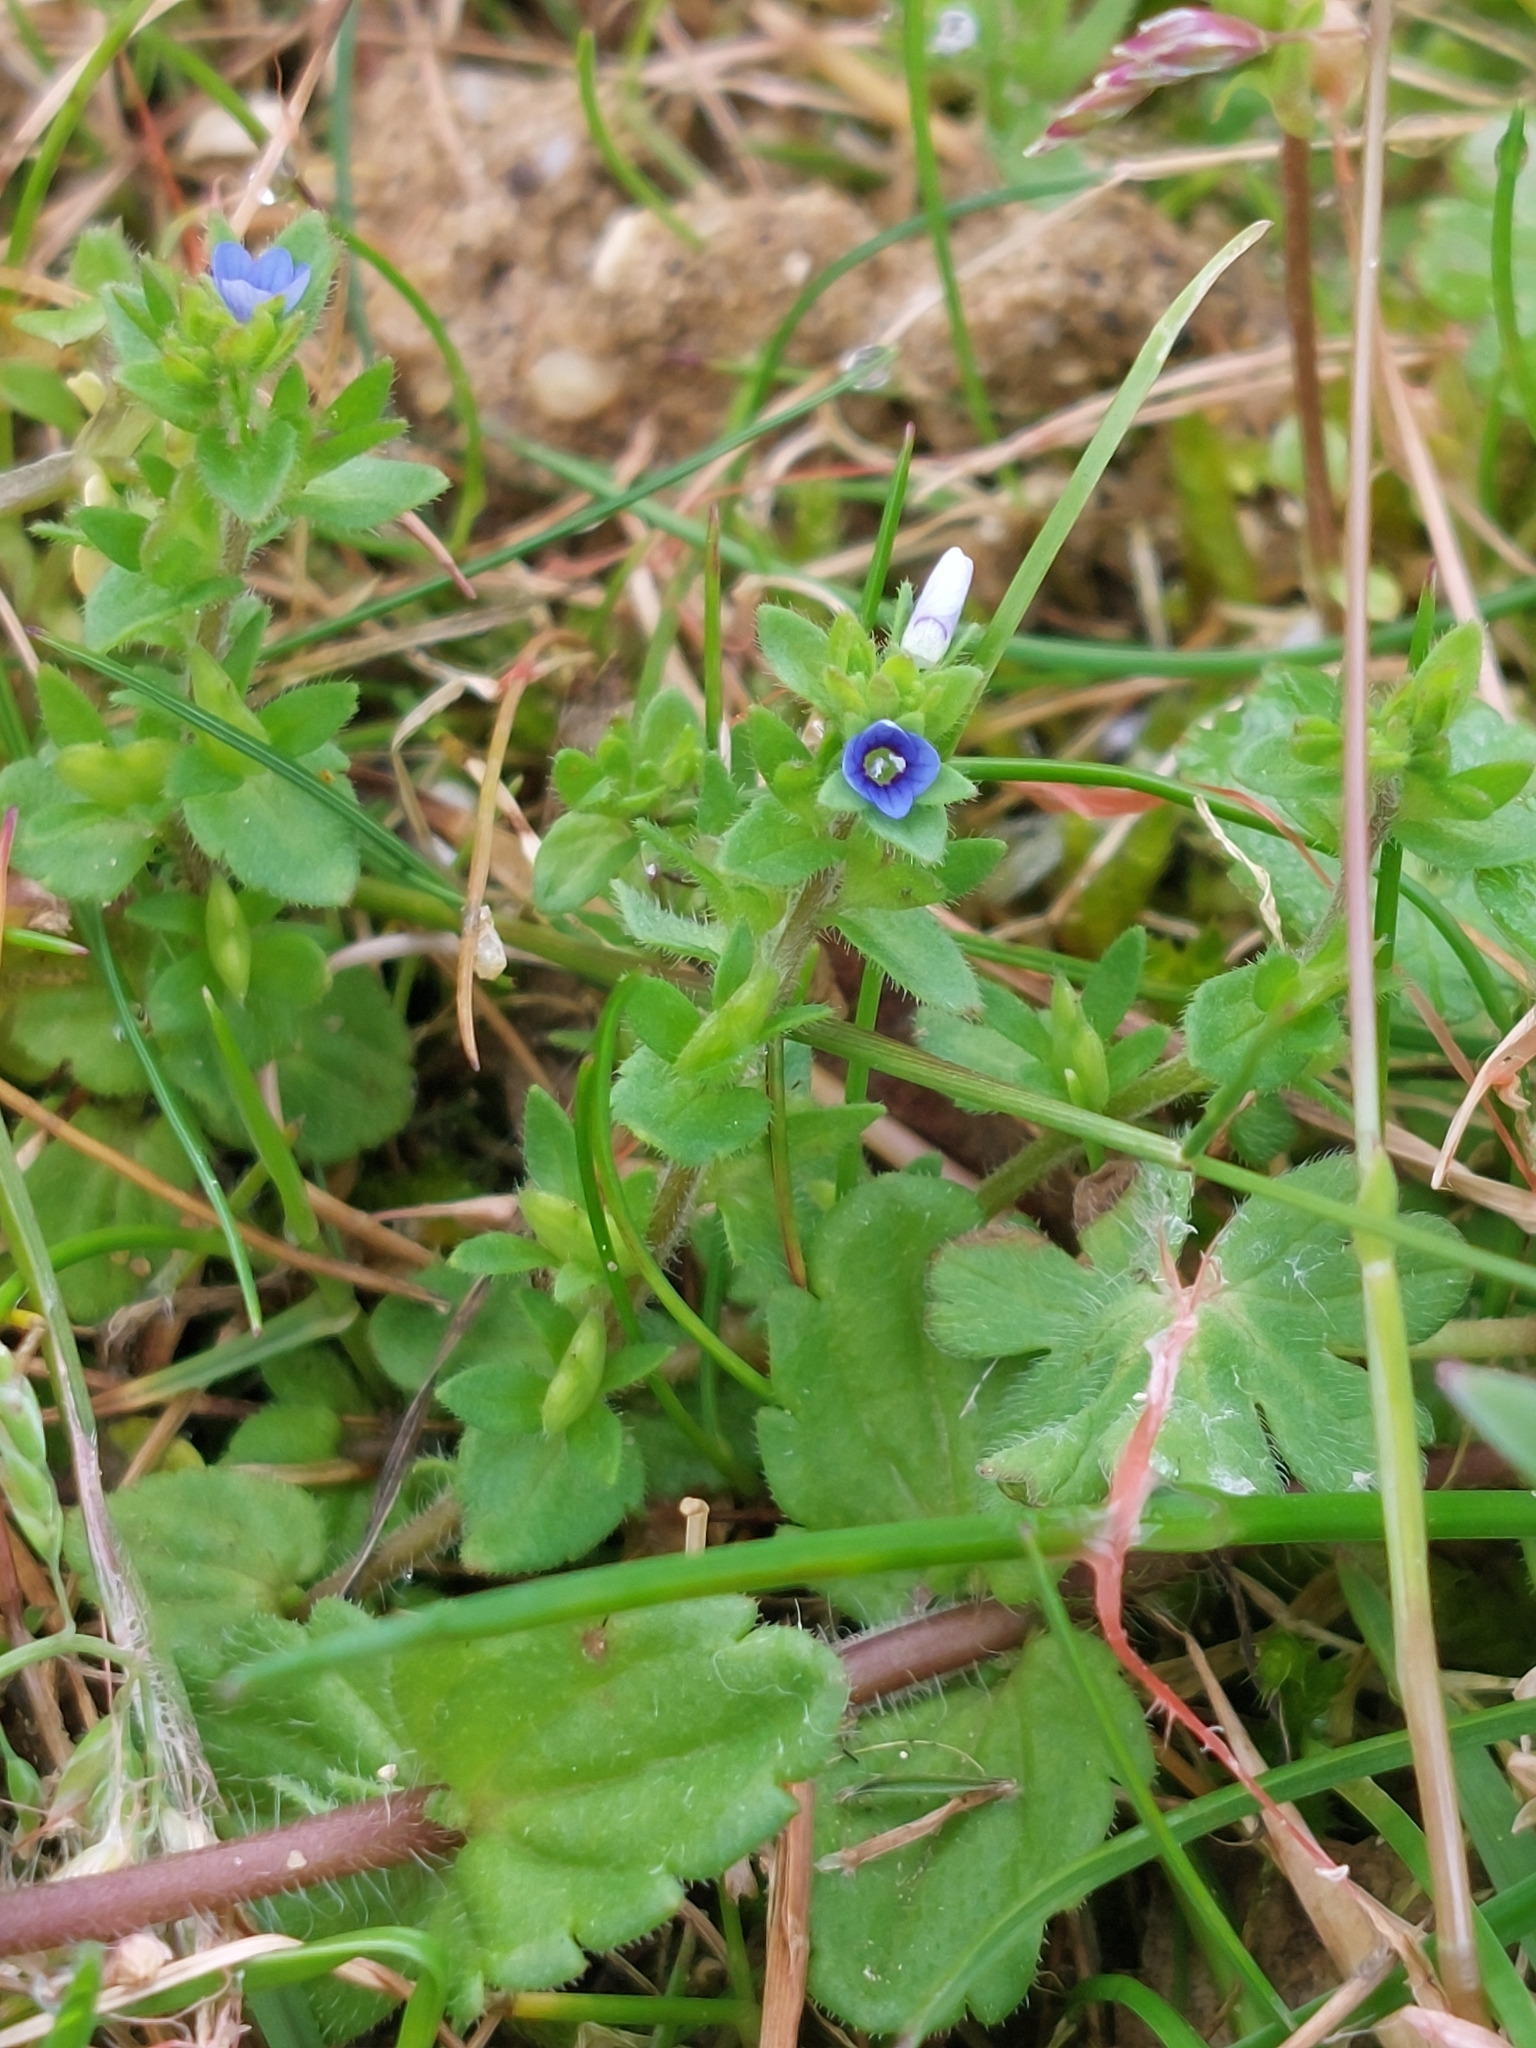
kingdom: Plantae
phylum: Tracheophyta
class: Magnoliopsida
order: Lamiales
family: Plantaginaceae
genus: Veronica
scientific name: Veronica arvensis
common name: Corn speedwell
